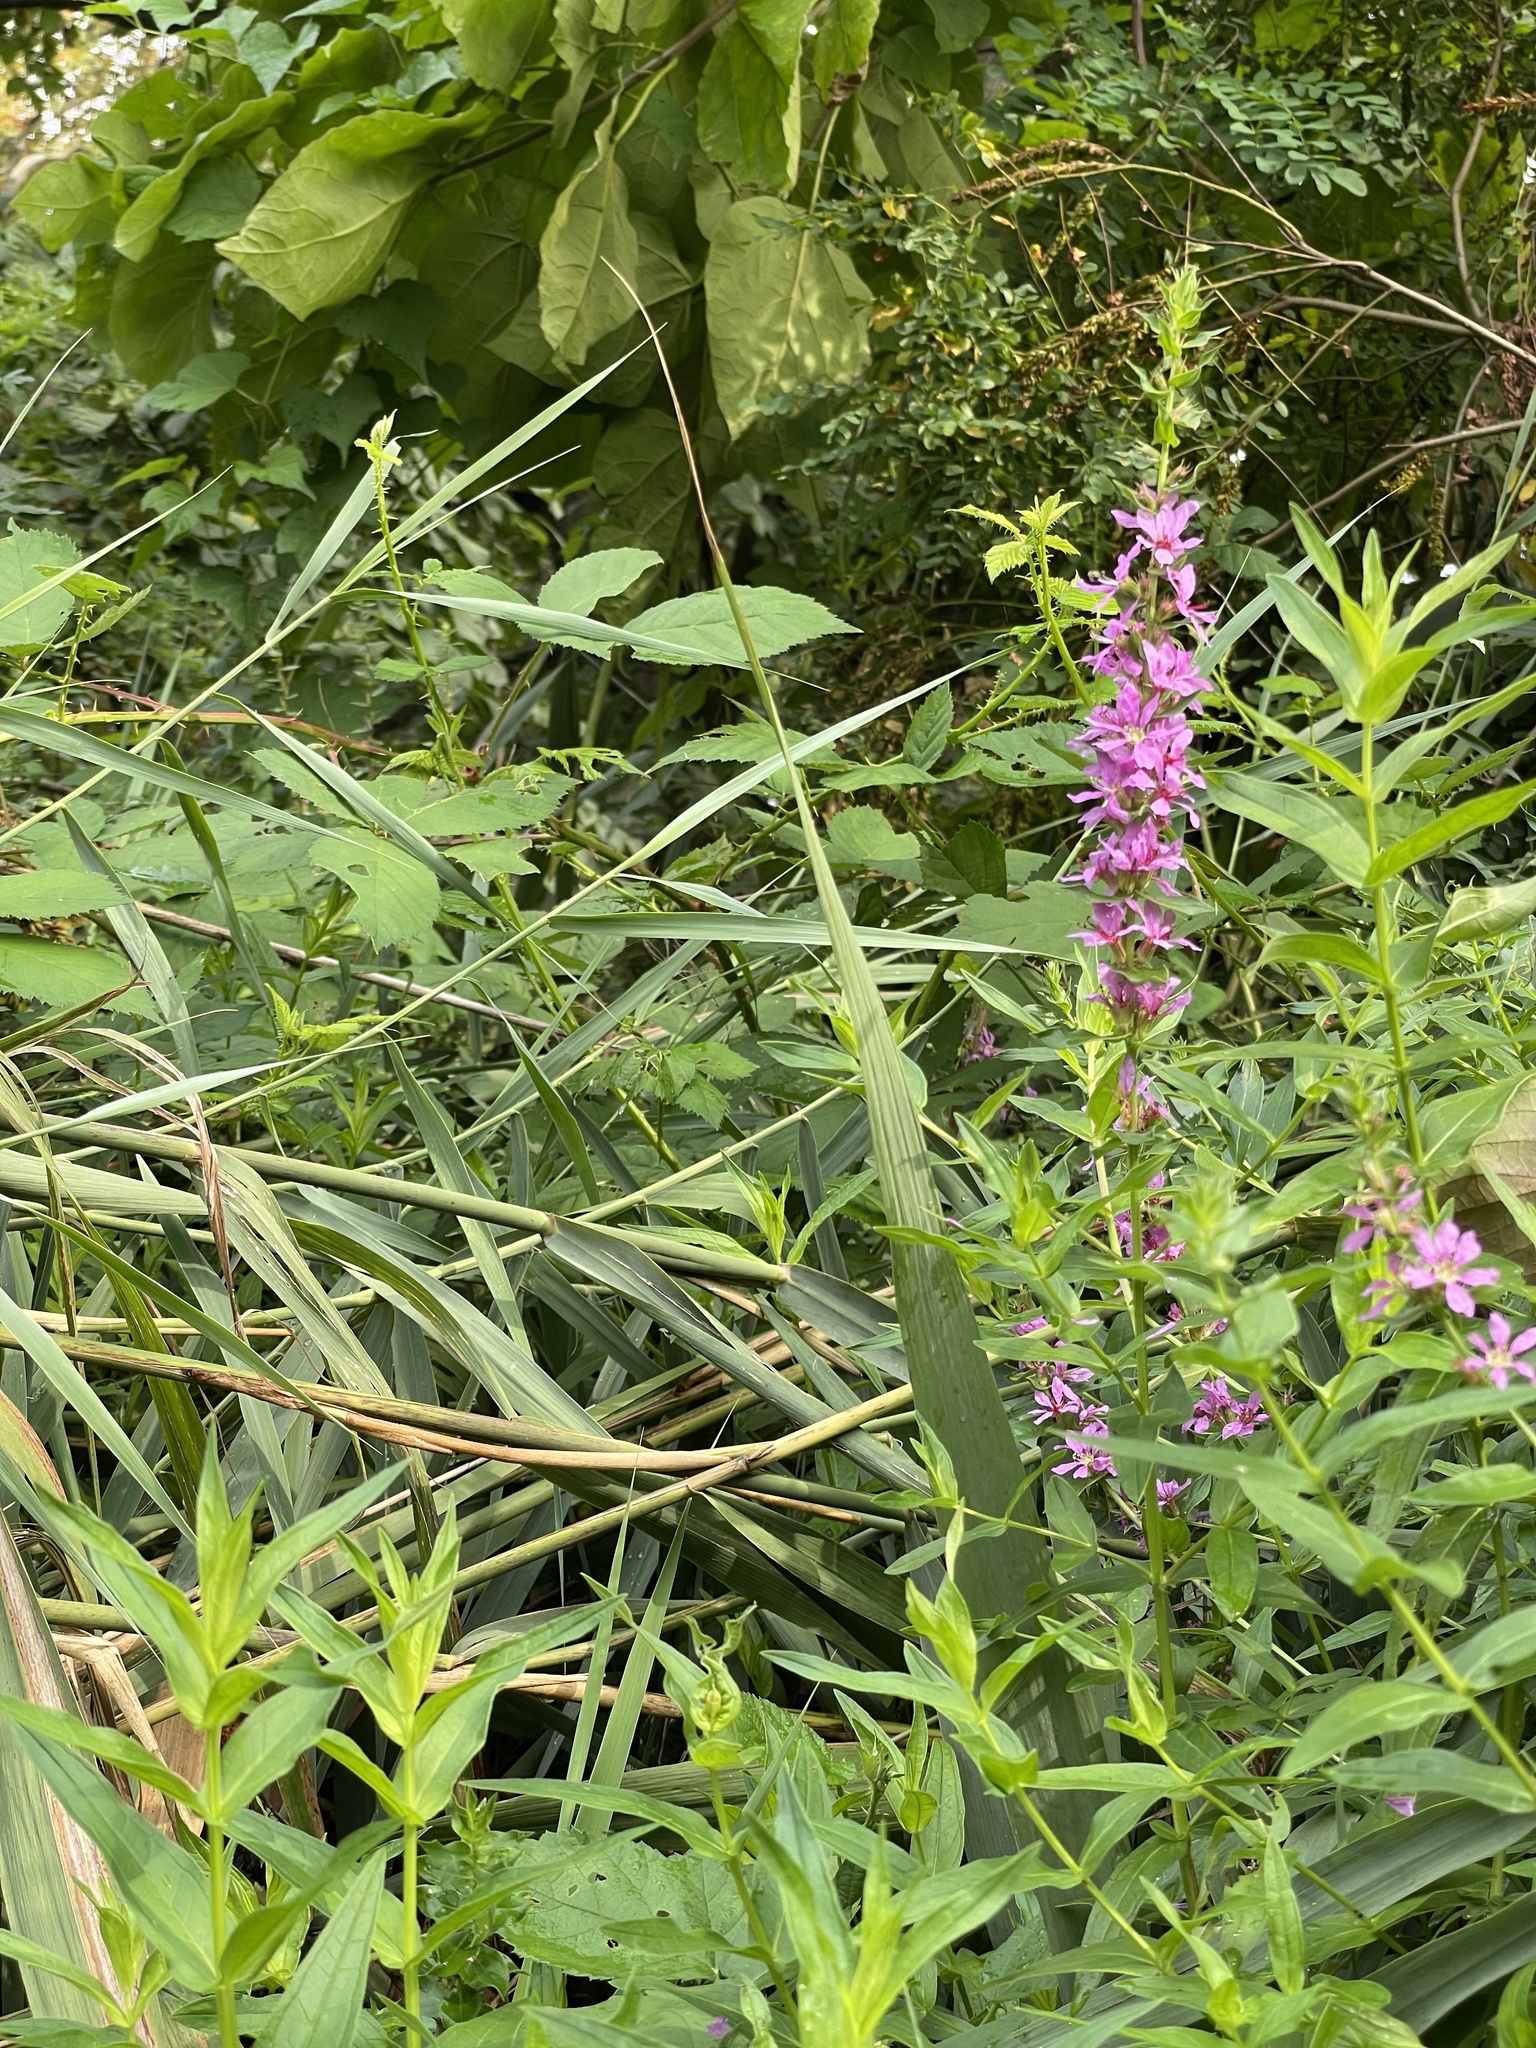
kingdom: Plantae
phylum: Tracheophyta
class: Magnoliopsida
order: Myrtales
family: Lythraceae
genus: Lythrum
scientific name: Lythrum salicaria
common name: Purple loosestrife
